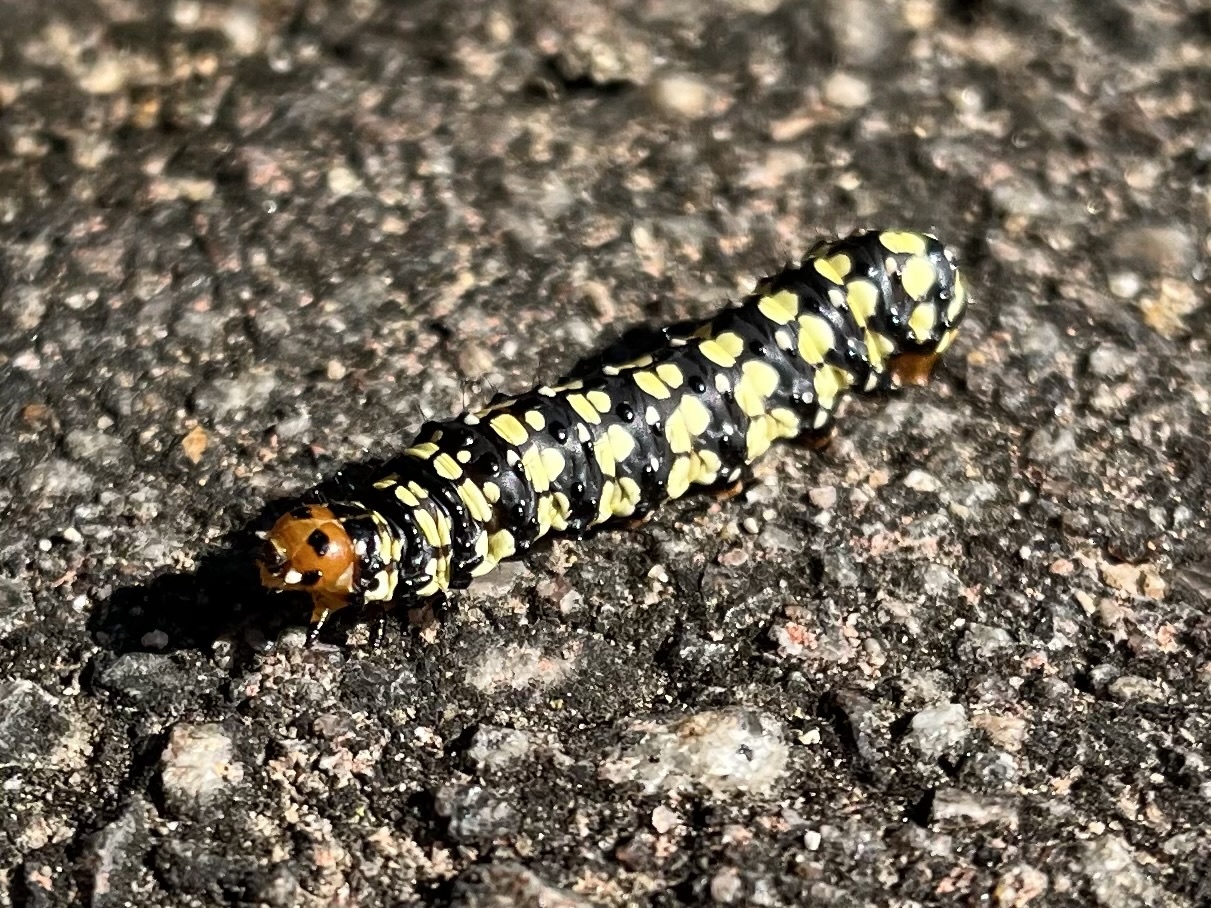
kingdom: Animalia
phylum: Arthropoda
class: Insecta
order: Lepidoptera
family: Noctuidae
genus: Brithys
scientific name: Brithys crini
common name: Kew arches
